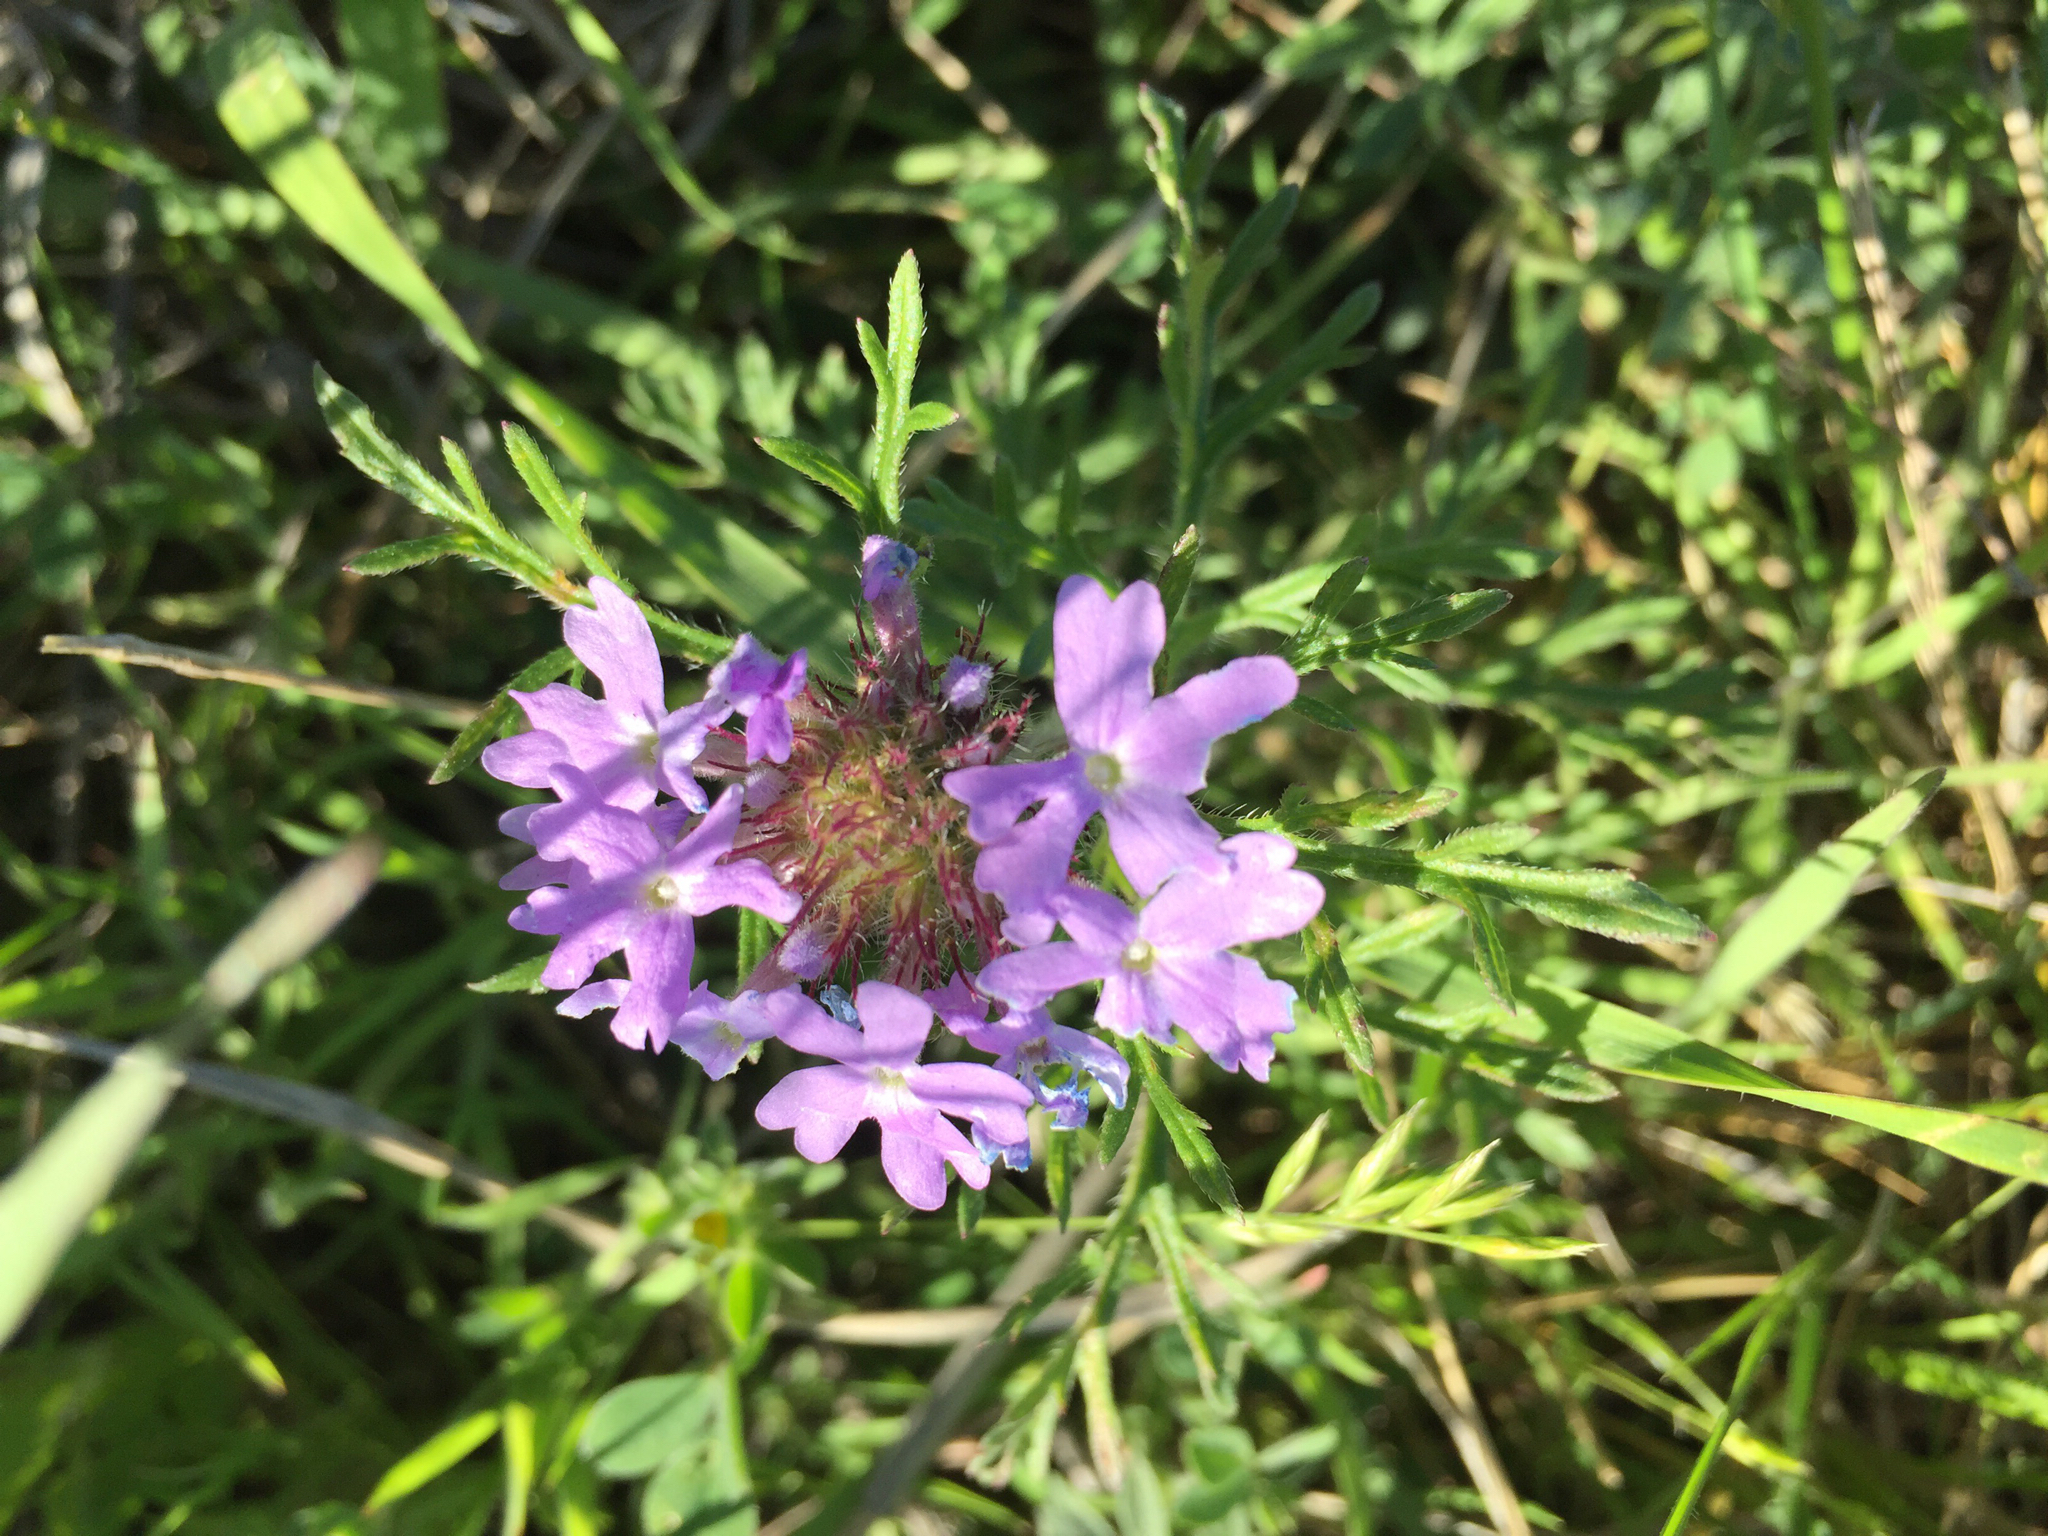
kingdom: Plantae
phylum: Tracheophyta
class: Magnoliopsida
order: Lamiales
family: Verbenaceae
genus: Verbena
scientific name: Verbena bipinnatifida
